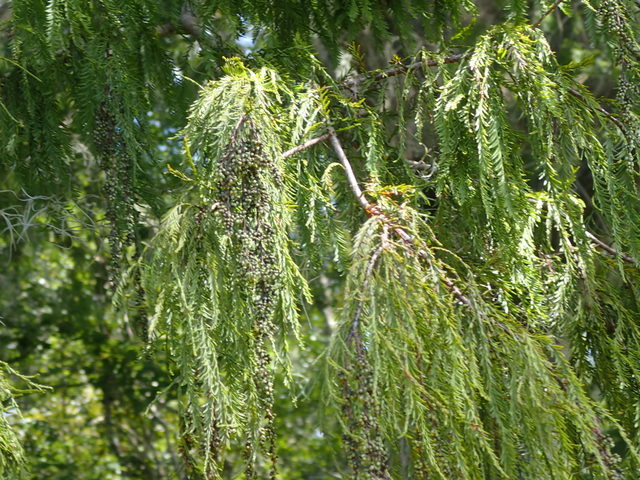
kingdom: Plantae
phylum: Tracheophyta
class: Pinopsida
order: Pinales
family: Cupressaceae
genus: Taxodium
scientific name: Taxodium distichum
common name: Bald cypress
